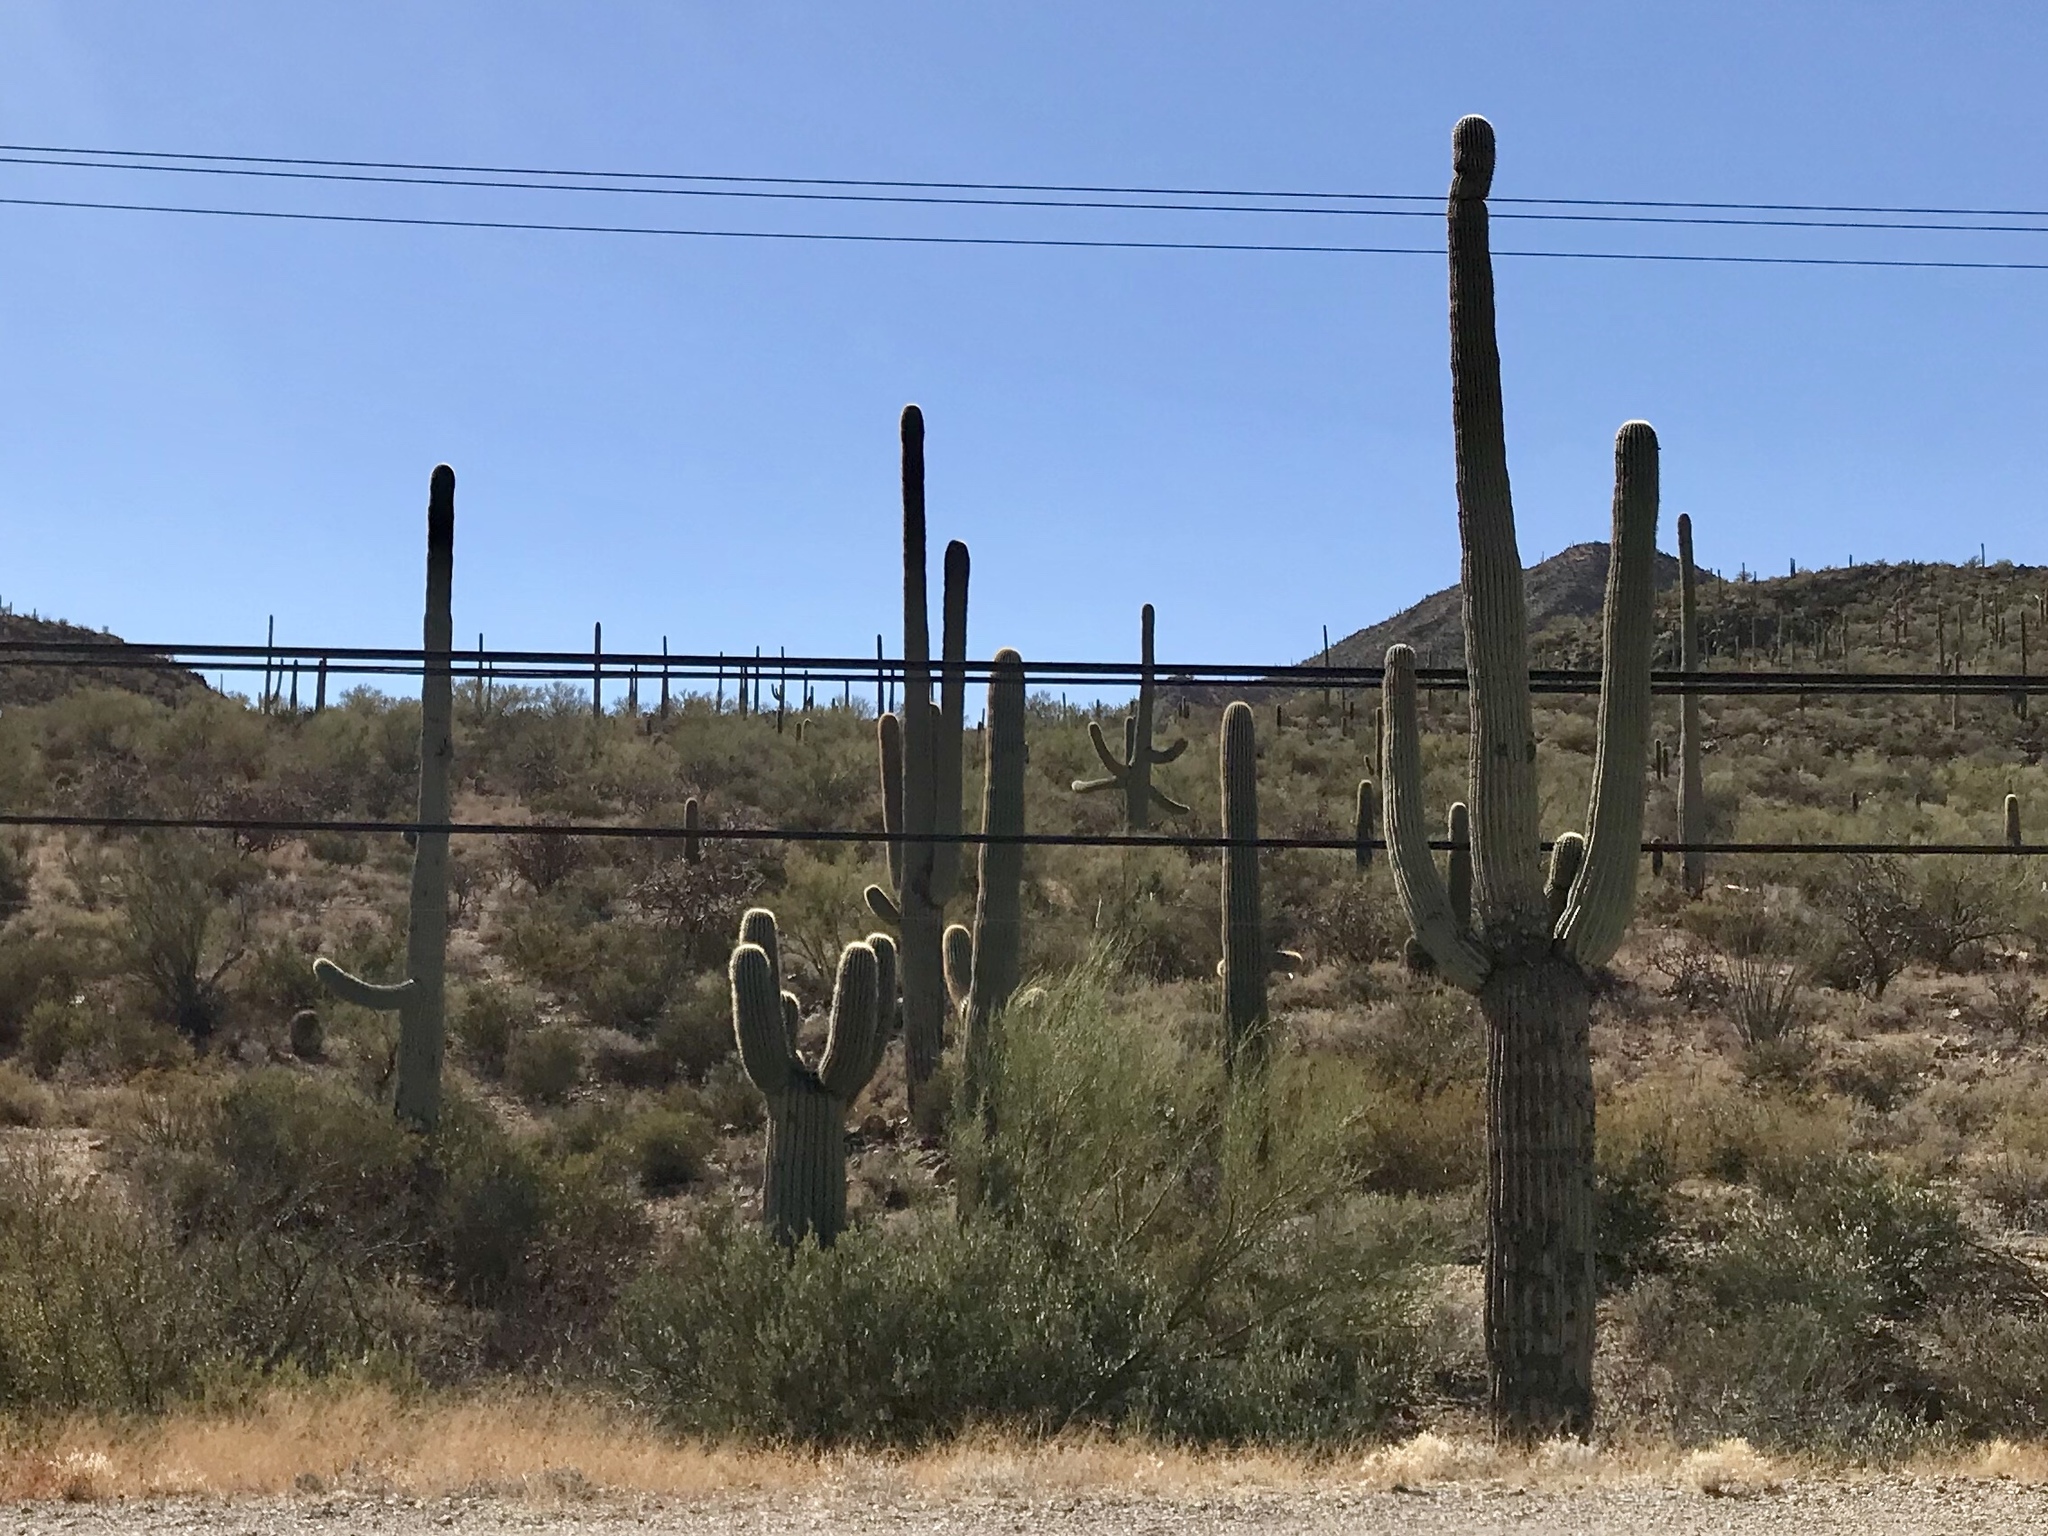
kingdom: Plantae
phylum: Tracheophyta
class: Magnoliopsida
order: Caryophyllales
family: Cactaceae
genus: Carnegiea
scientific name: Carnegiea gigantea
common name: Saguaro
